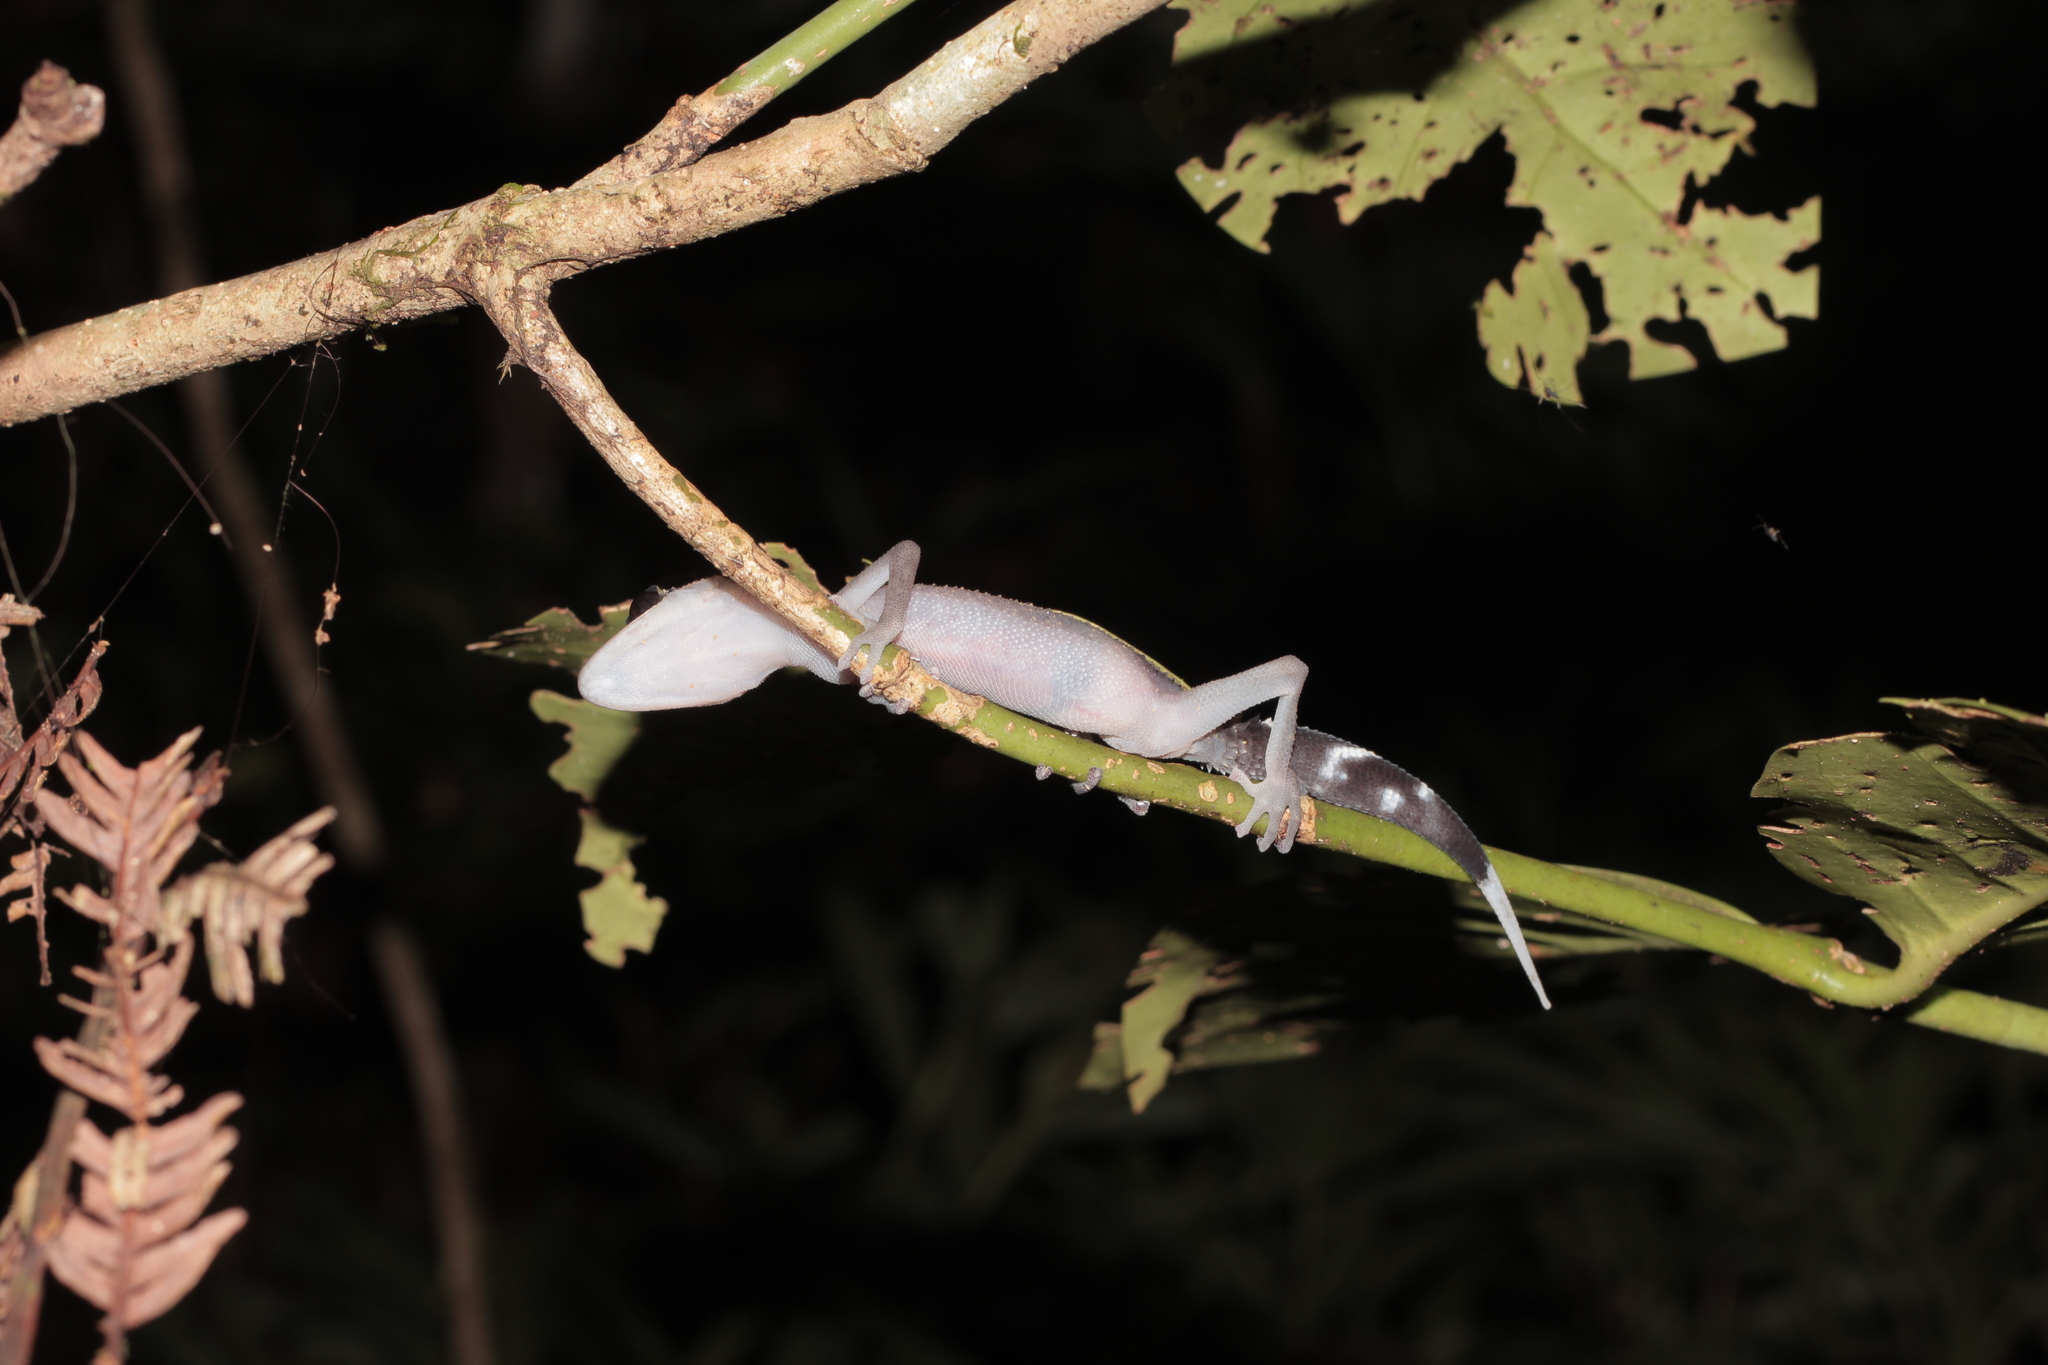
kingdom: Animalia
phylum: Chordata
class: Squamata
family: Gekkonidae
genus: Paroedura
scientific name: Paroedura gracilis
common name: Graceful madagascar ground gecko
